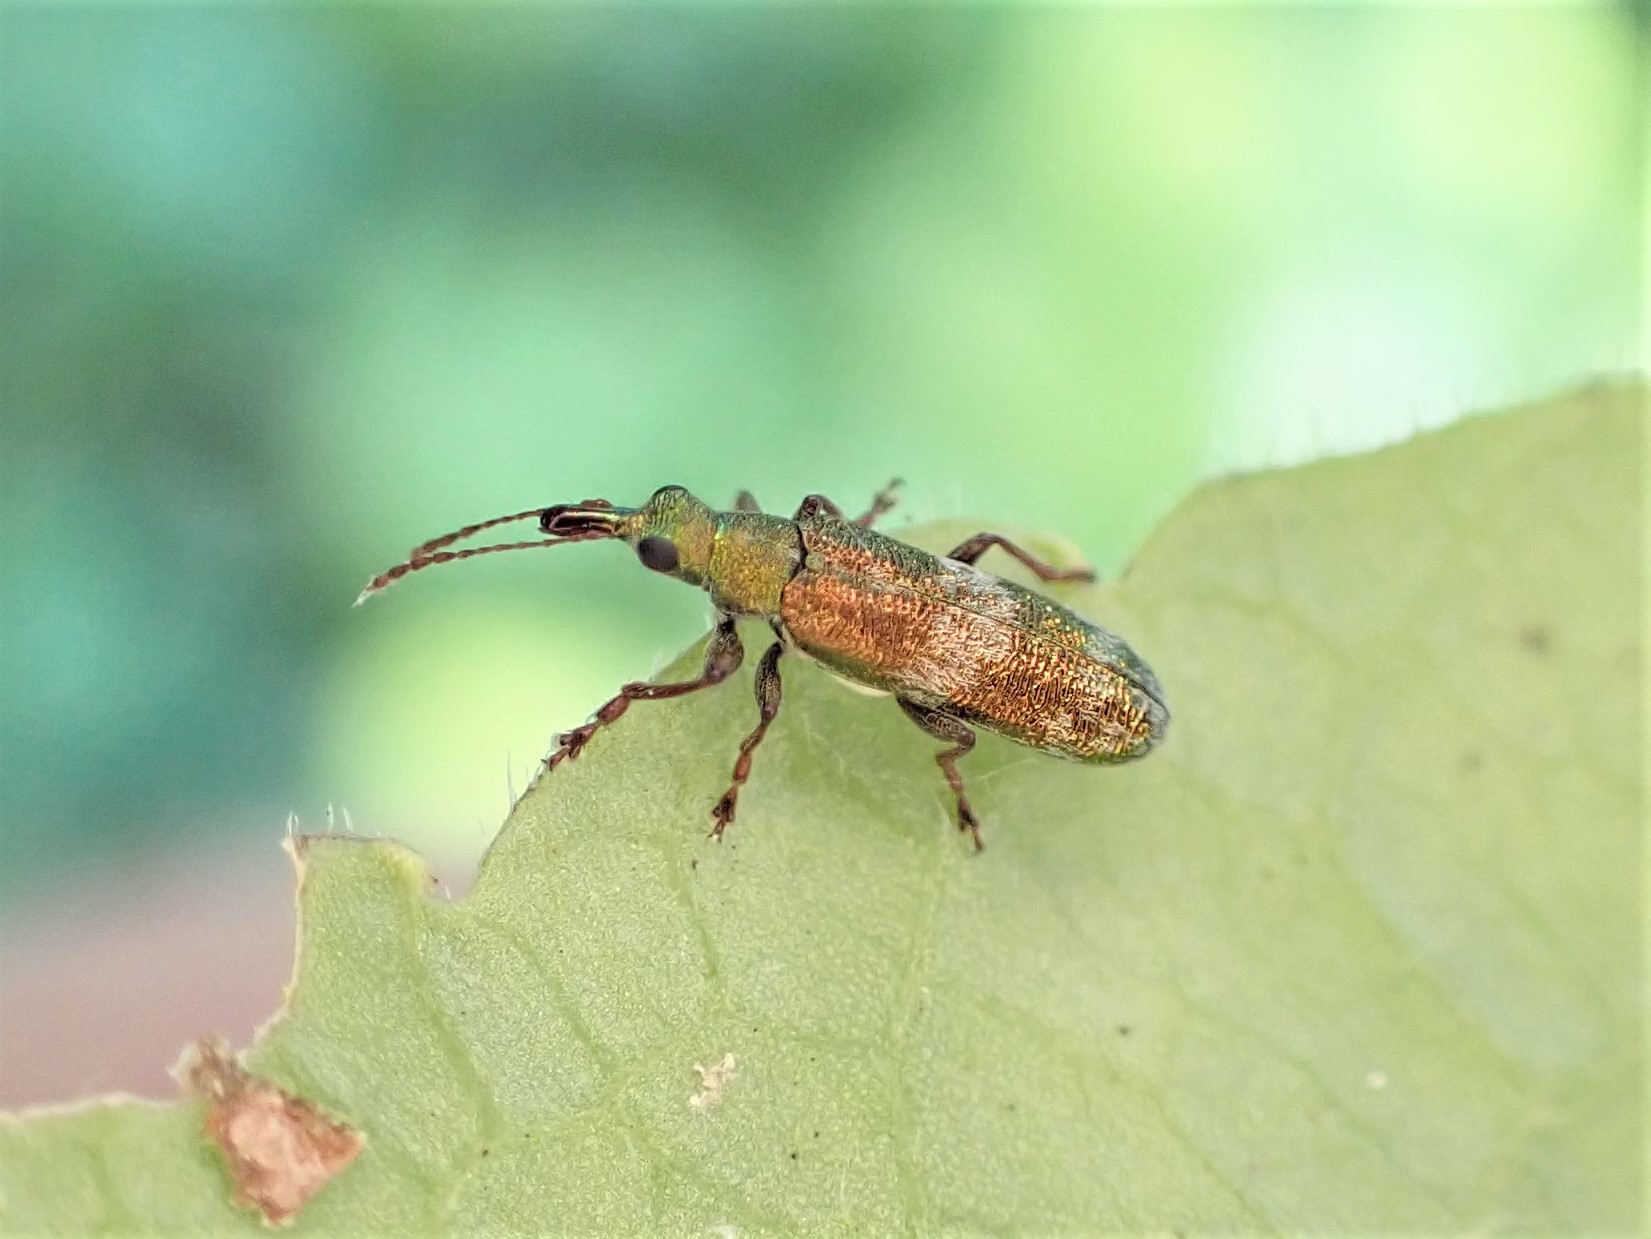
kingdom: Animalia
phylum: Arthropoda
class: Insecta
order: Coleoptera
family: Belidae
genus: Rhicnobelus
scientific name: Rhicnobelus
